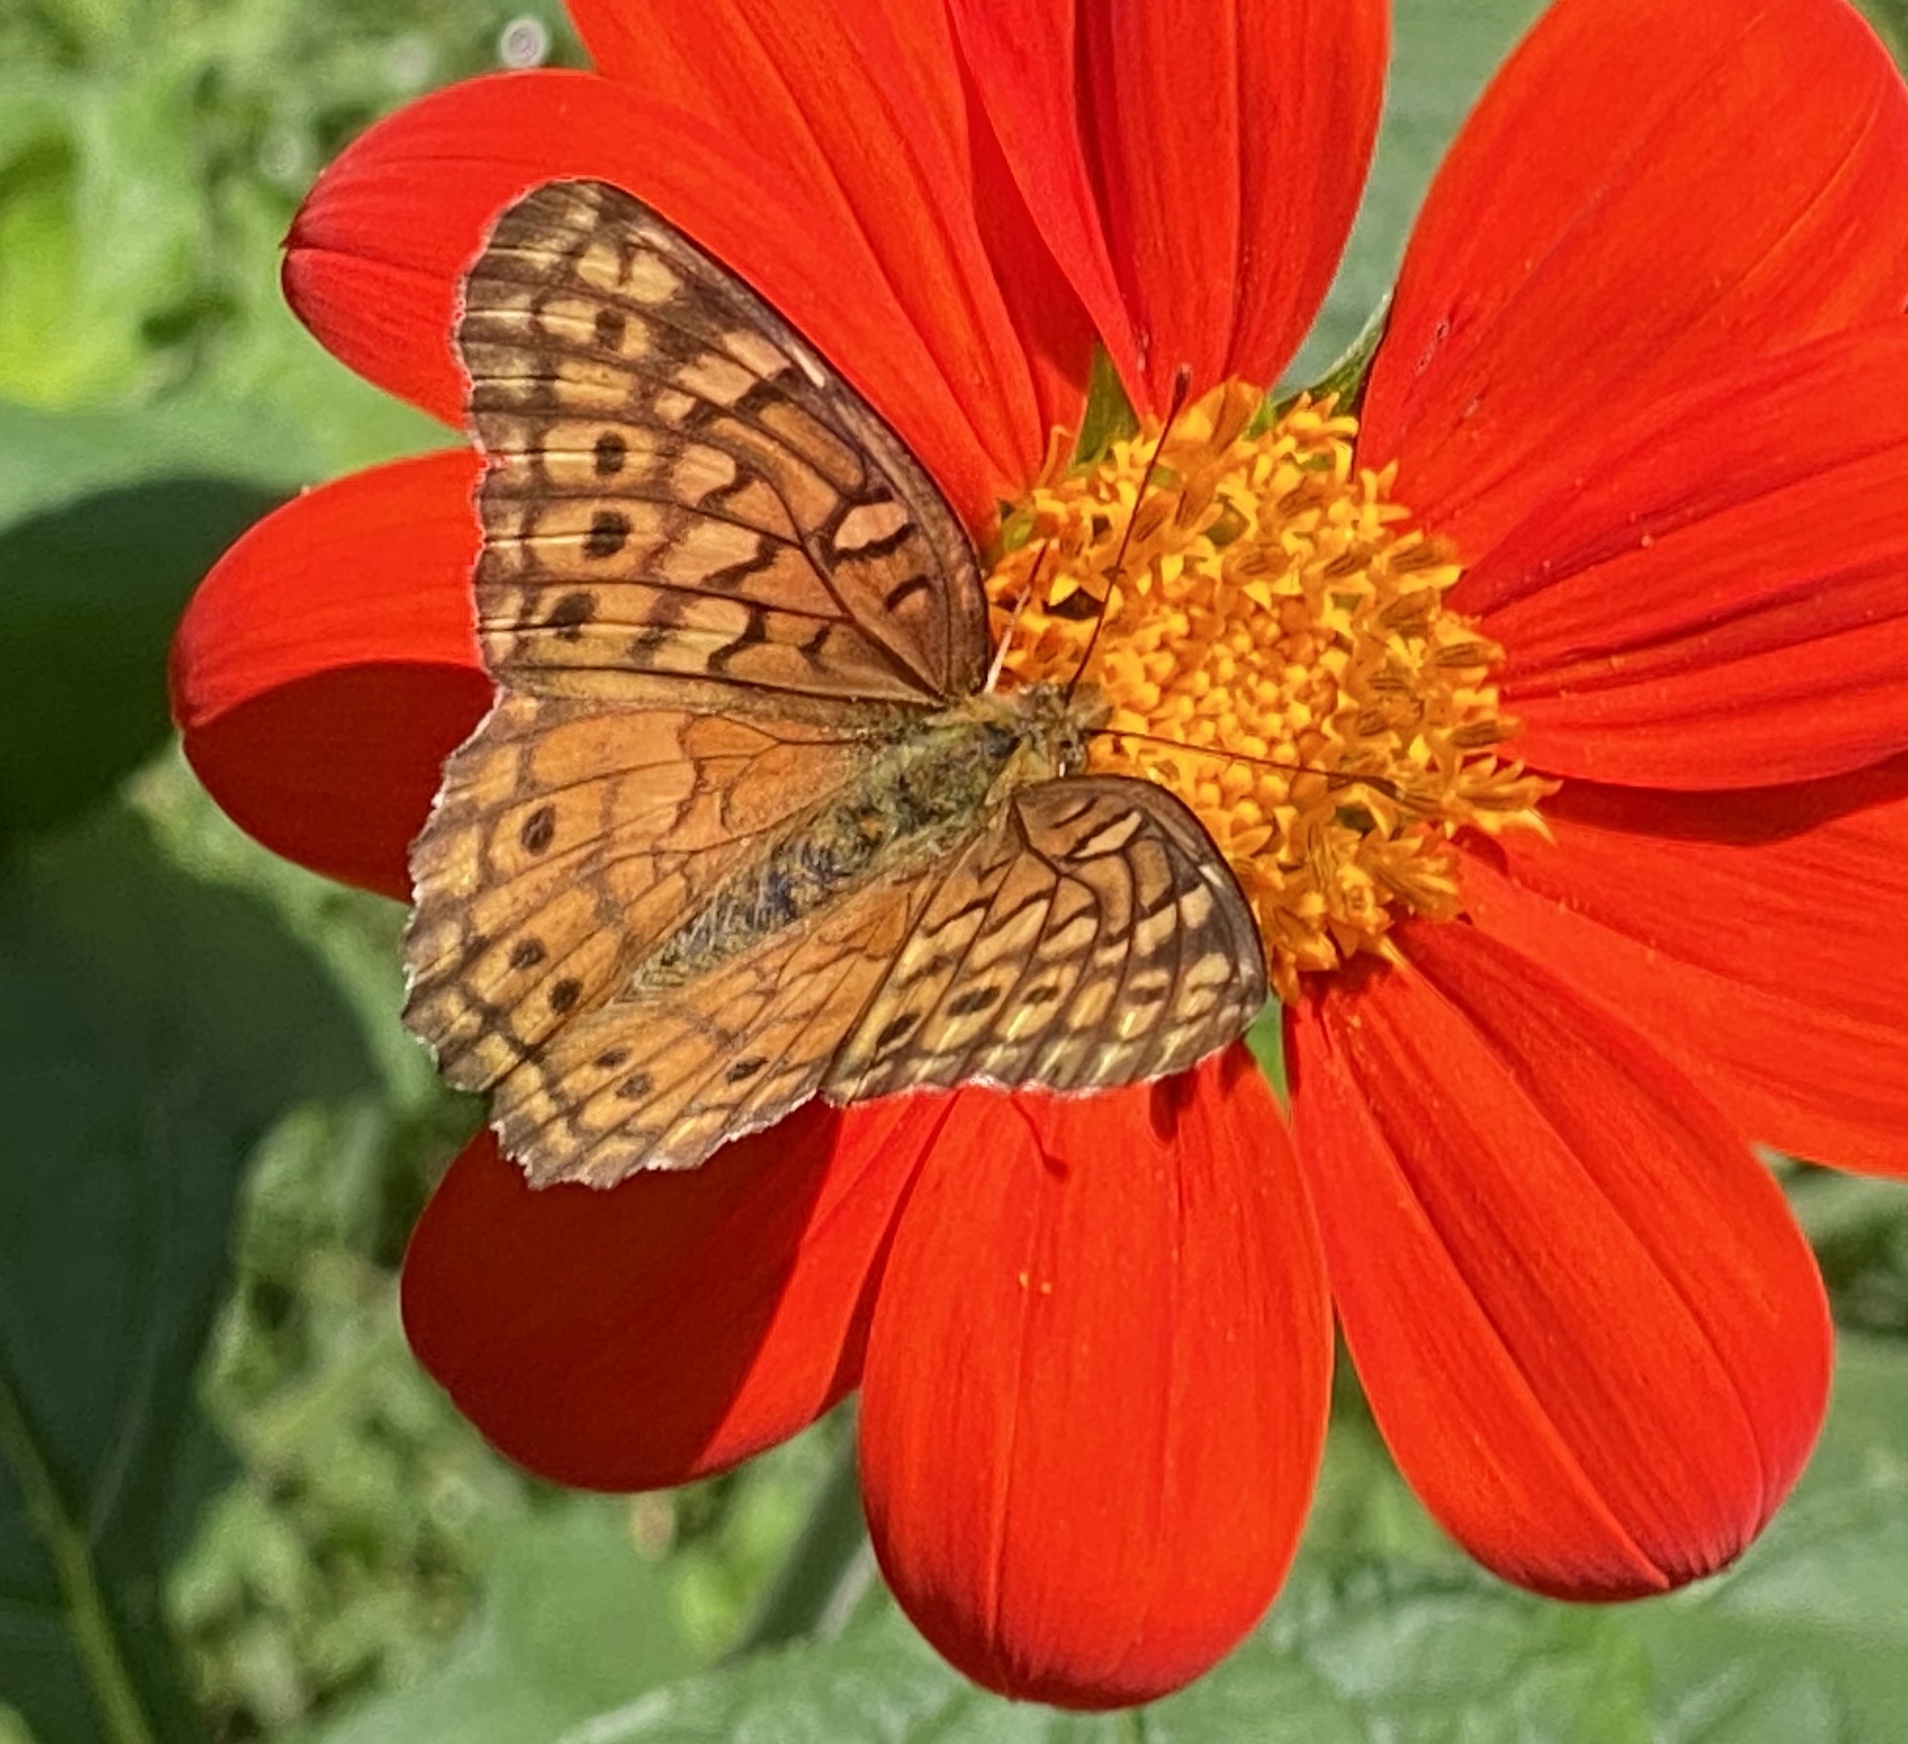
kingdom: Animalia
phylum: Arthropoda
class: Insecta
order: Lepidoptera
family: Nymphalidae
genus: Euptoieta
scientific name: Euptoieta claudia
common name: Variegated fritillary
